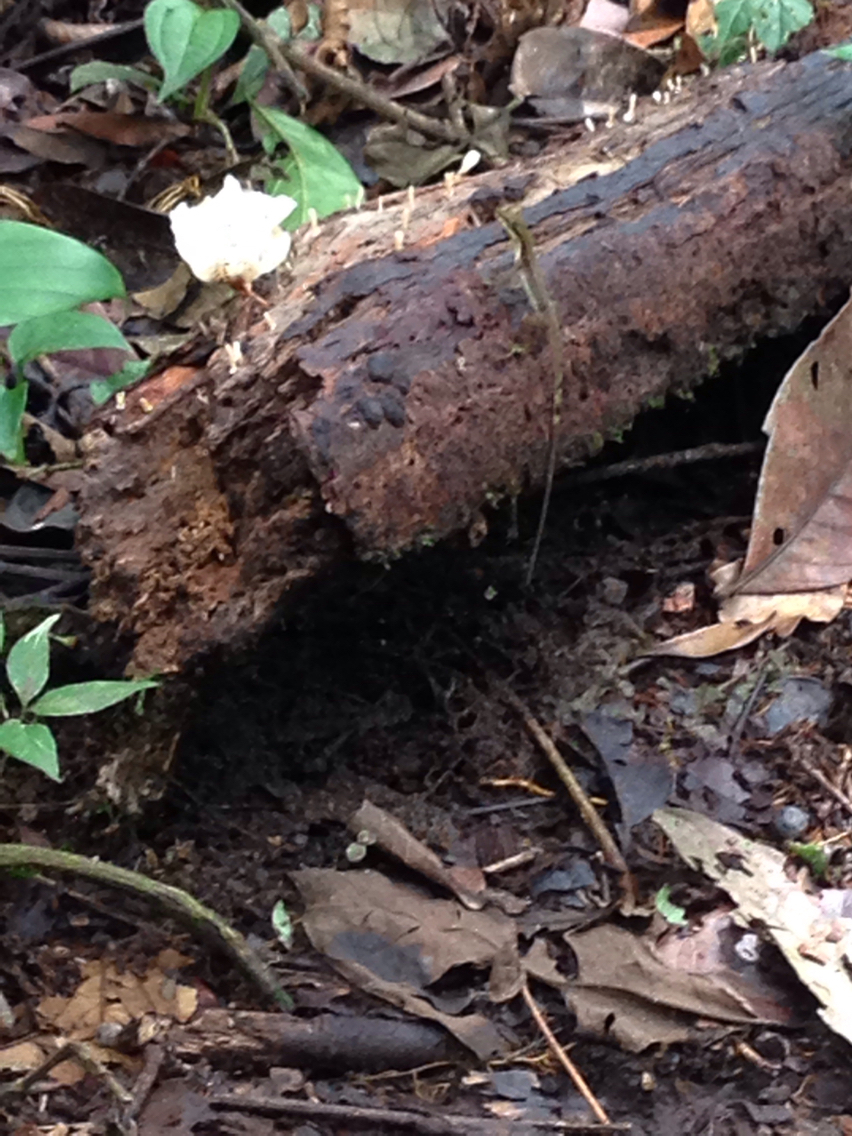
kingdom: Animalia
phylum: Chordata
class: Squamata
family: Dactyloidae
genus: Anolis
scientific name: Anolis limifrons
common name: Border anole
